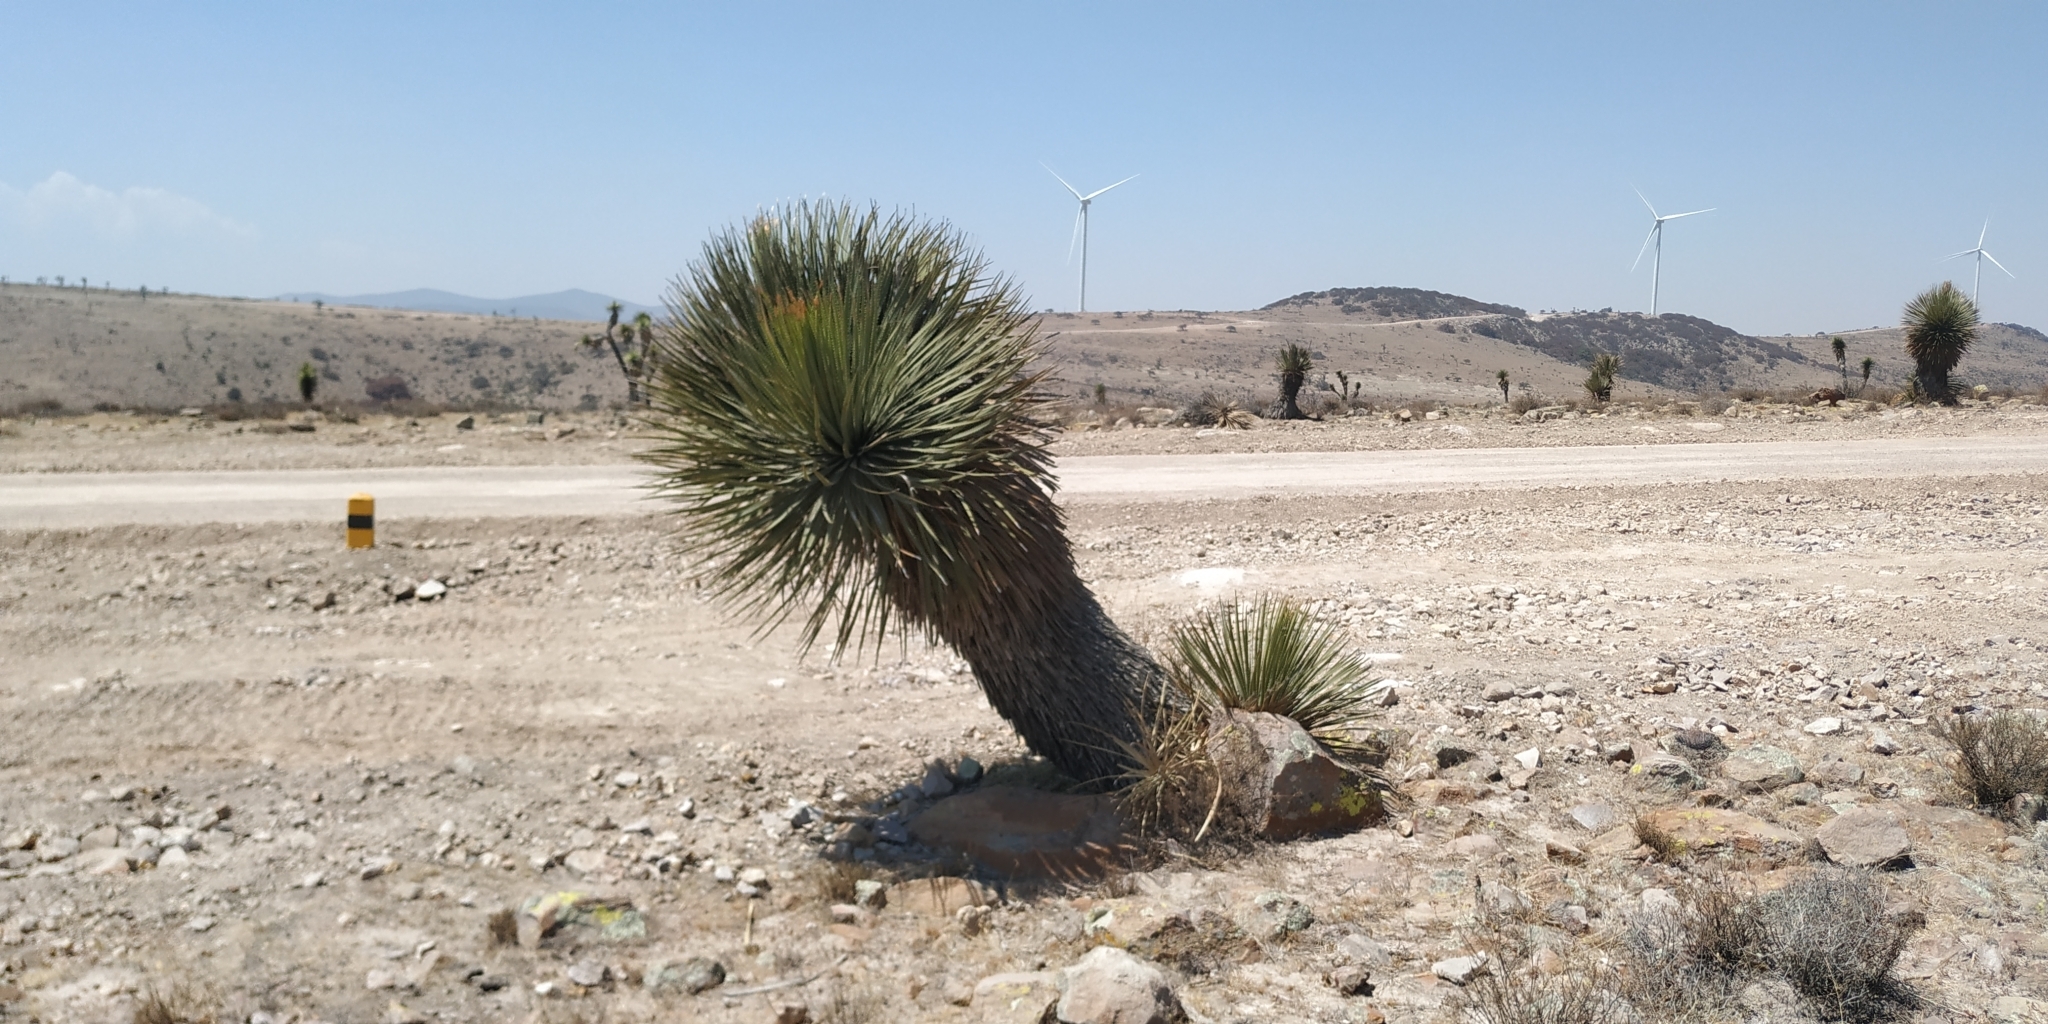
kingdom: Plantae
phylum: Tracheophyta
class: Liliopsida
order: Asparagales
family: Asparagaceae
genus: Dasylirion
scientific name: Dasylirion acrotrichum
